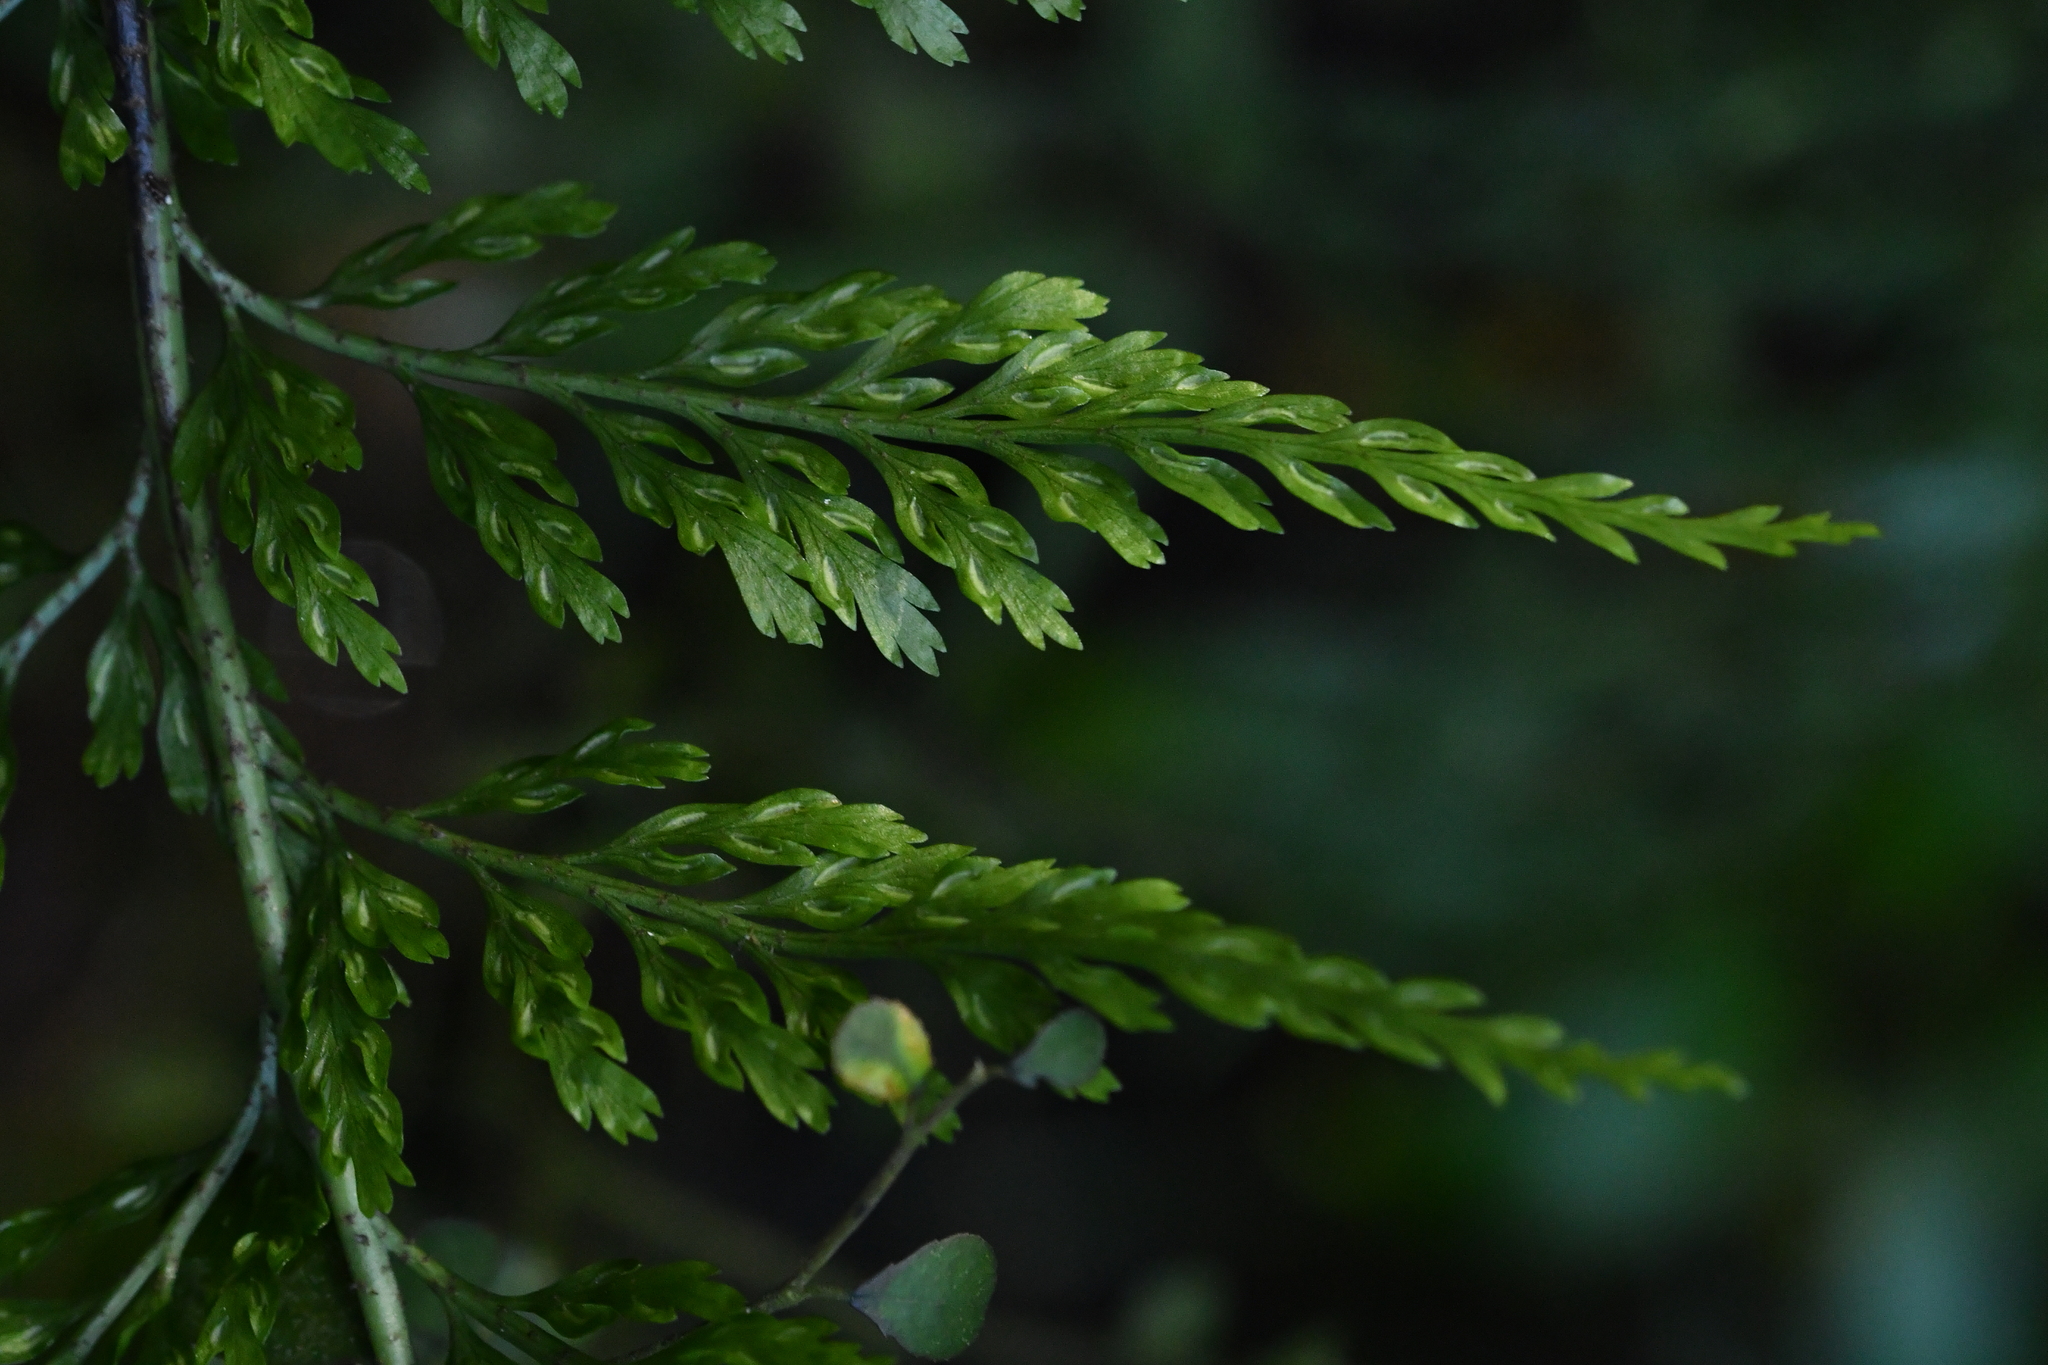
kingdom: Plantae
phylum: Tracheophyta
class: Polypodiopsida
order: Polypodiales
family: Aspleniaceae
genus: Asplenium
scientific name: Asplenium
